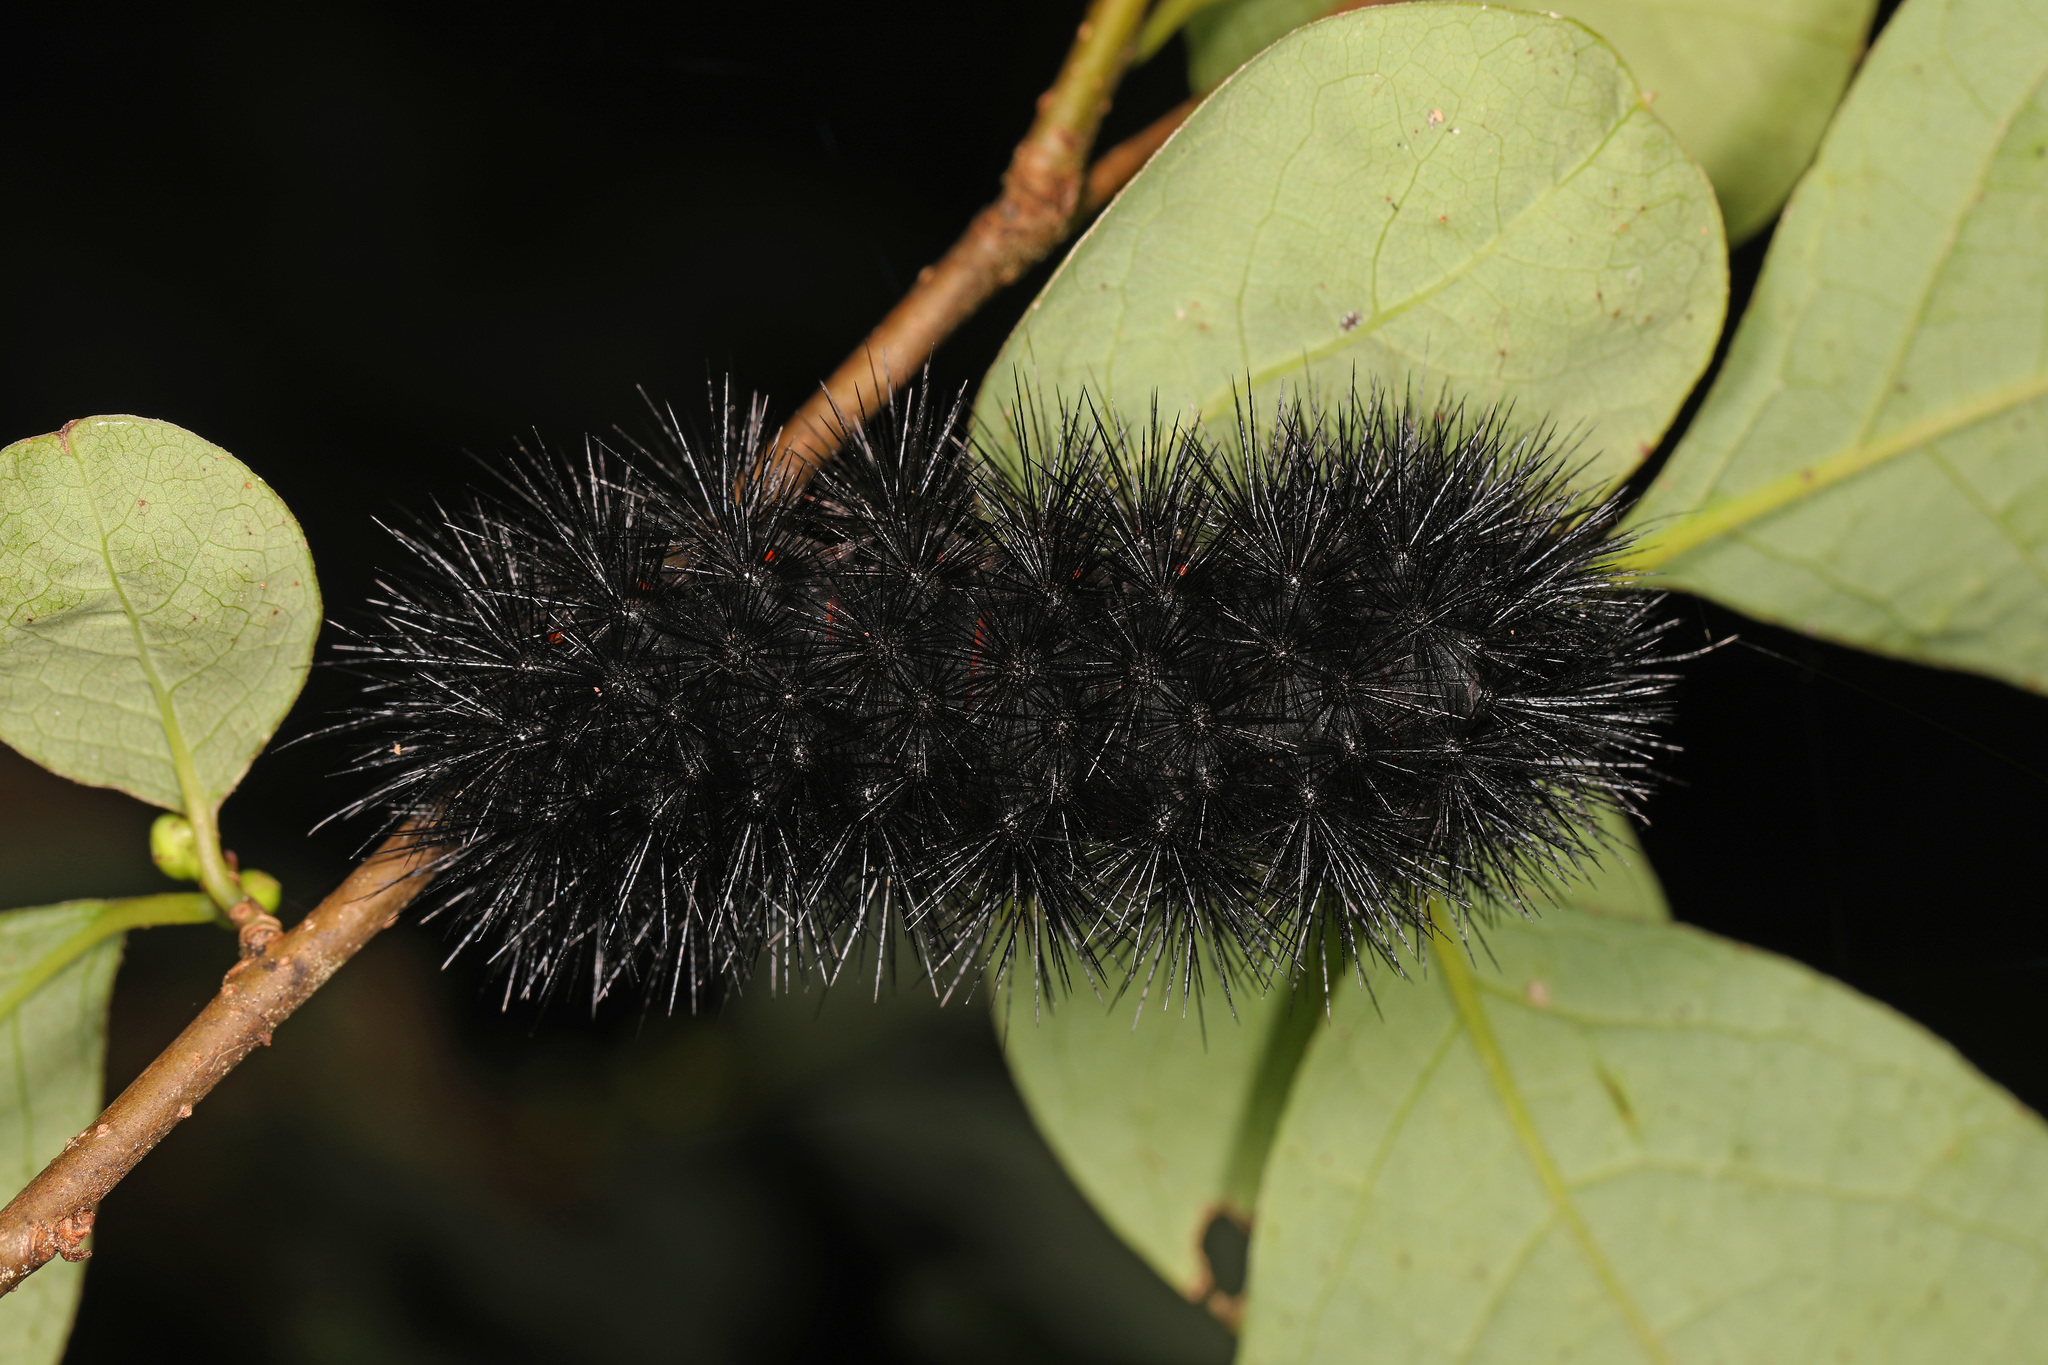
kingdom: Animalia
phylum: Arthropoda
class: Insecta
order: Lepidoptera
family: Erebidae
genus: Hypercompe
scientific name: Hypercompe scribonia
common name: Giant leopard moth
